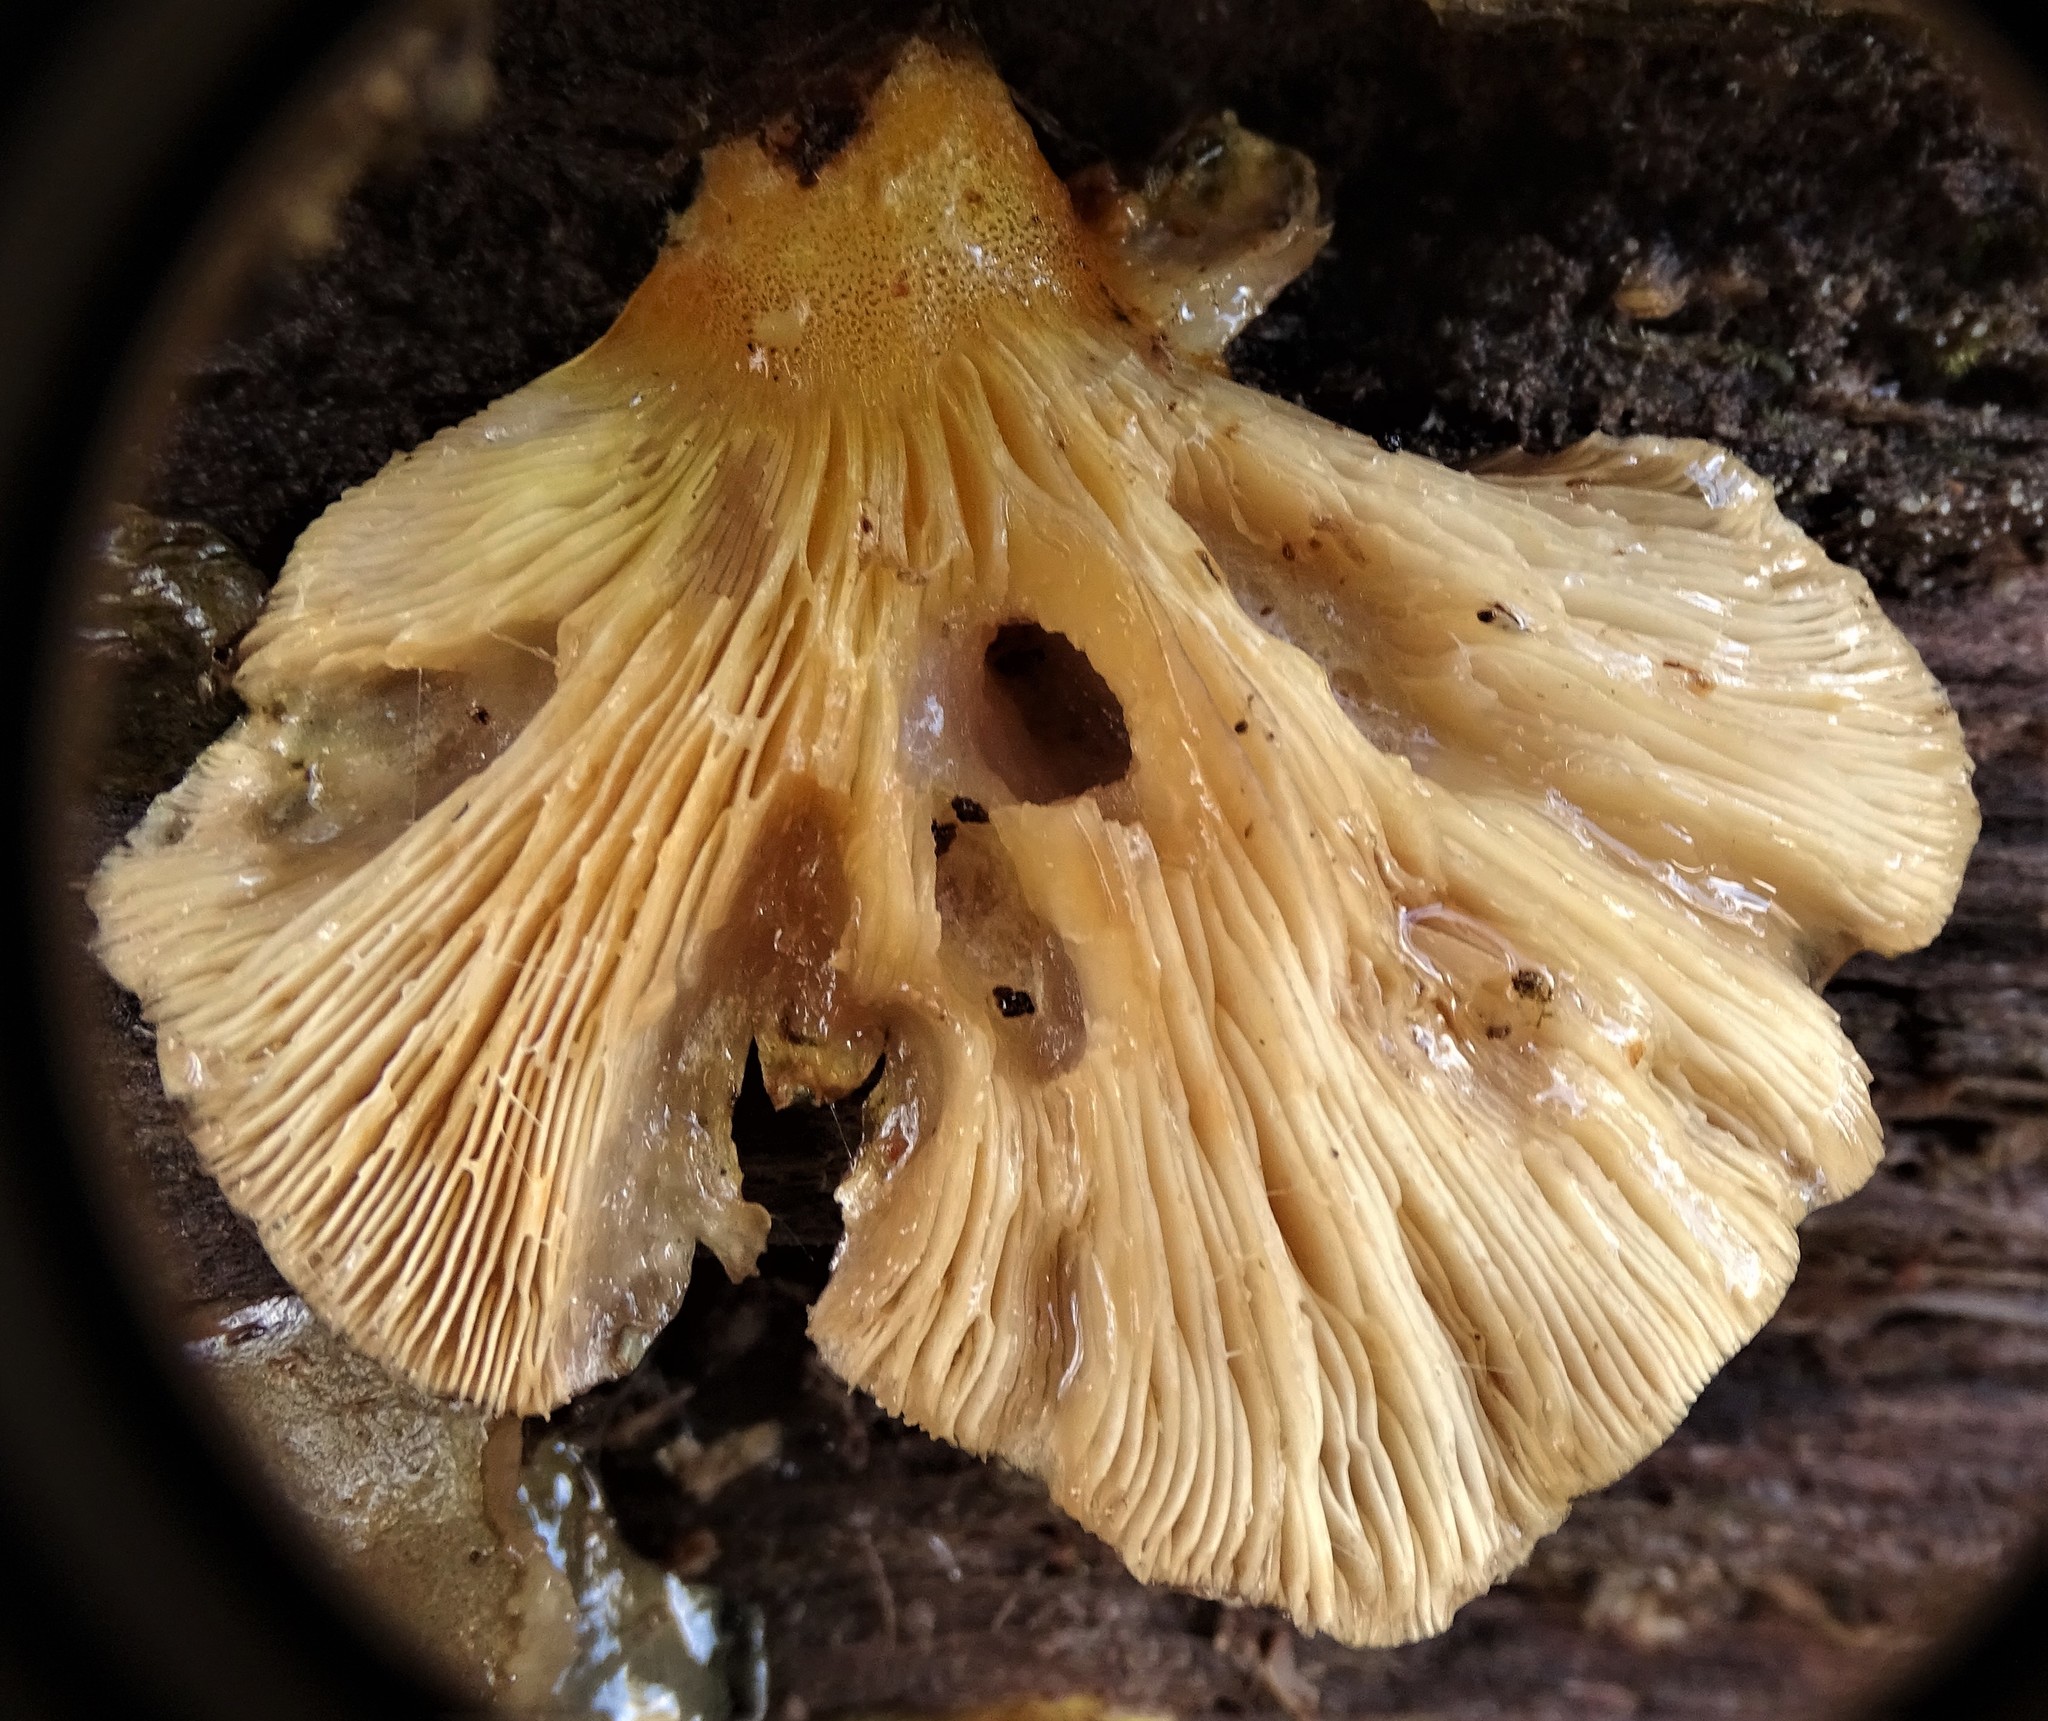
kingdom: Fungi
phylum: Basidiomycota
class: Agaricomycetes
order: Agaricales
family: Sarcomyxaceae
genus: Sarcomyxa
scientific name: Sarcomyxa serotina
